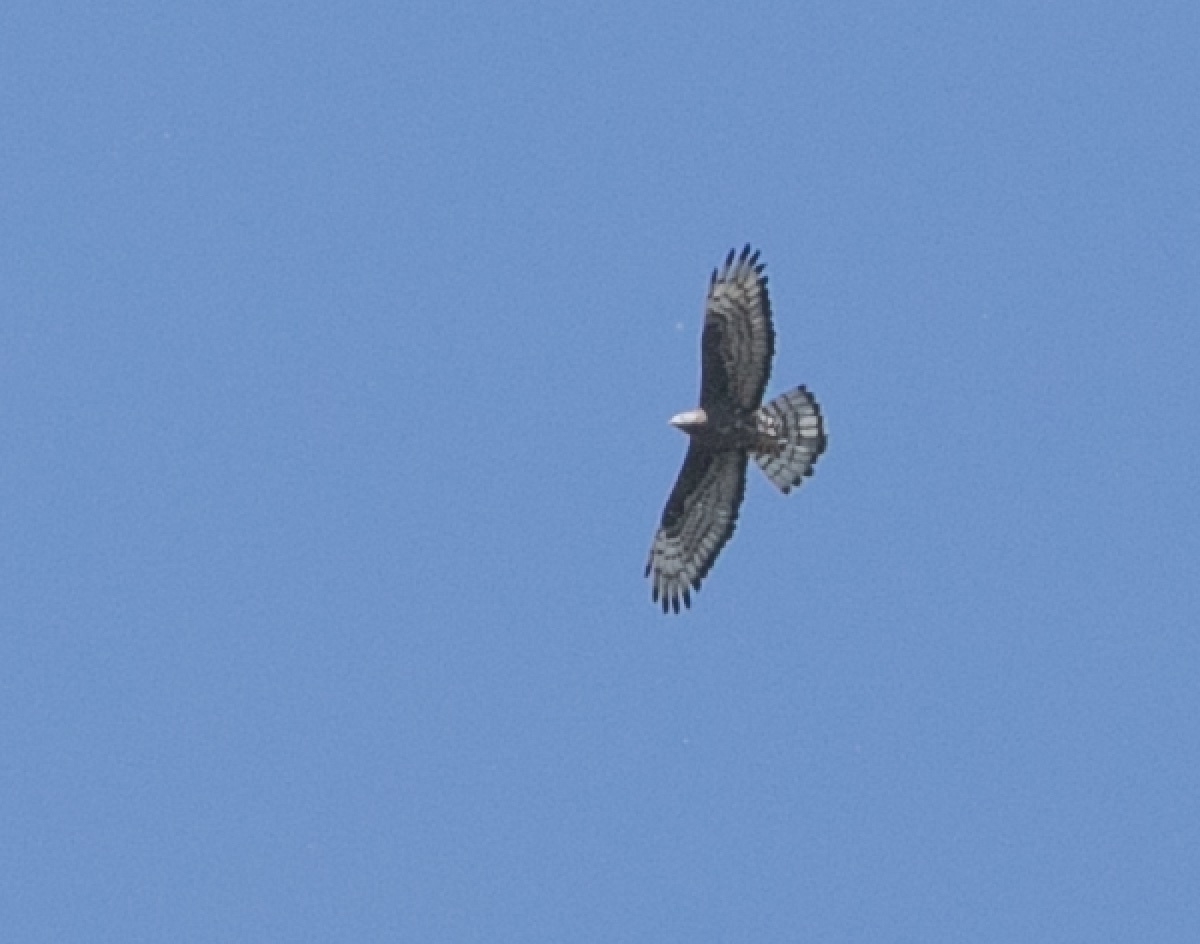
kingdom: Animalia
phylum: Chordata
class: Aves
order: Accipitriformes
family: Accipitridae
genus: Pernis
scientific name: Pernis apivorus
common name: European honey buzzard
